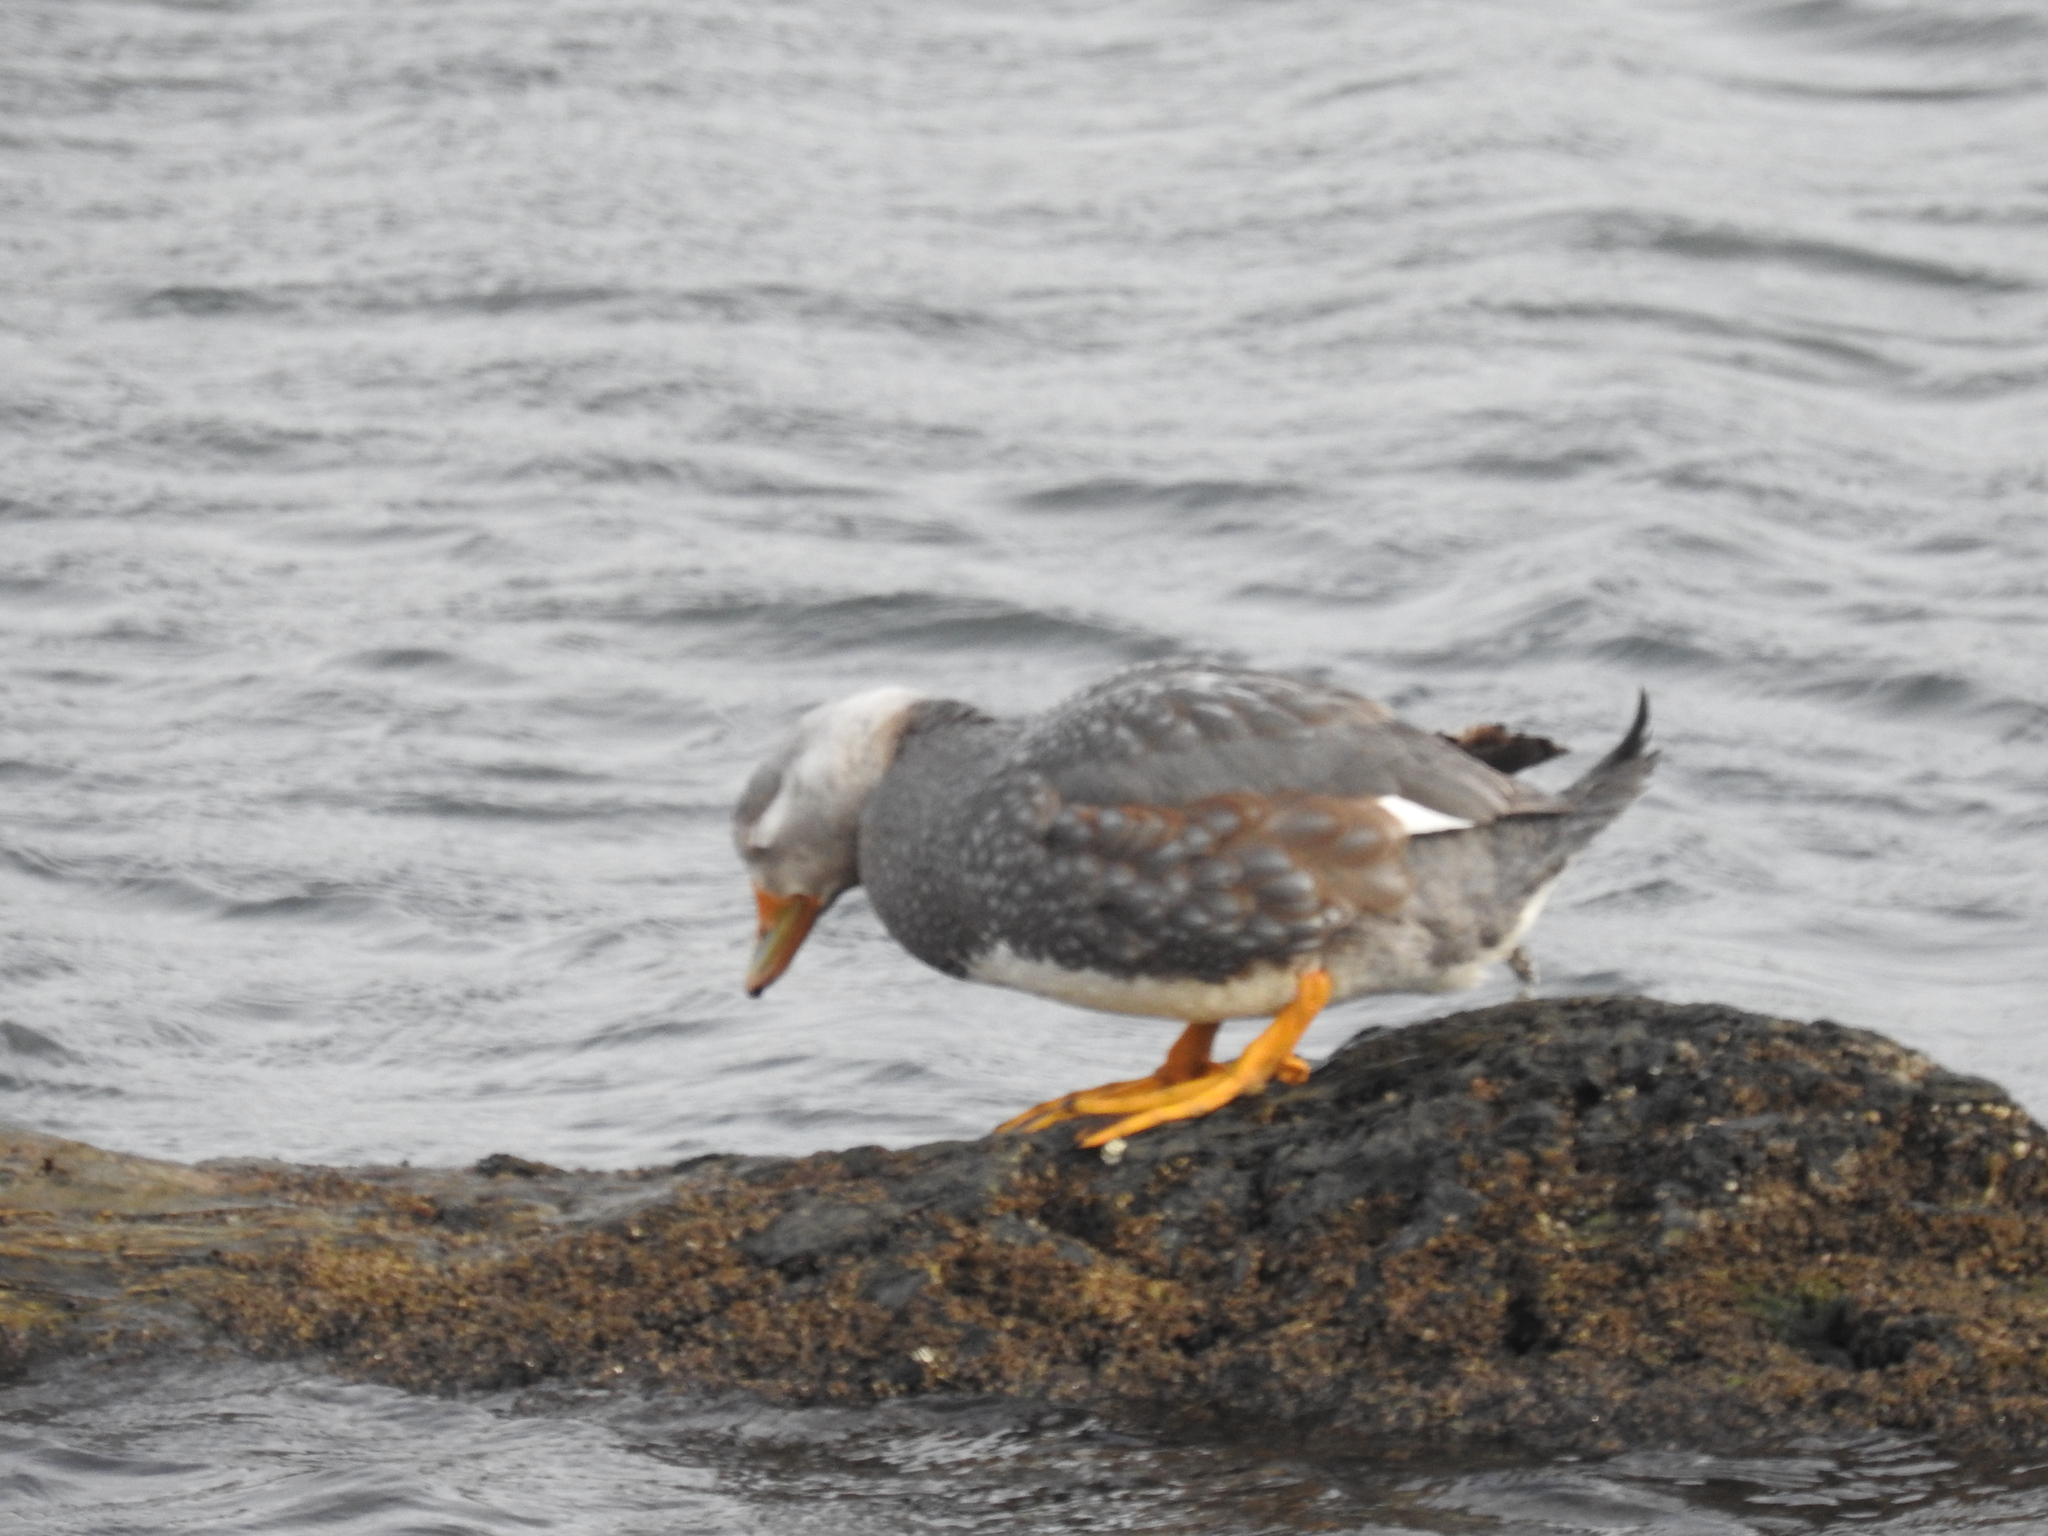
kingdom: Animalia
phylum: Chordata
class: Aves
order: Anseriformes
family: Anatidae
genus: Tachyeres
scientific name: Tachyeres pteneres
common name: Fuegian steamer duck
